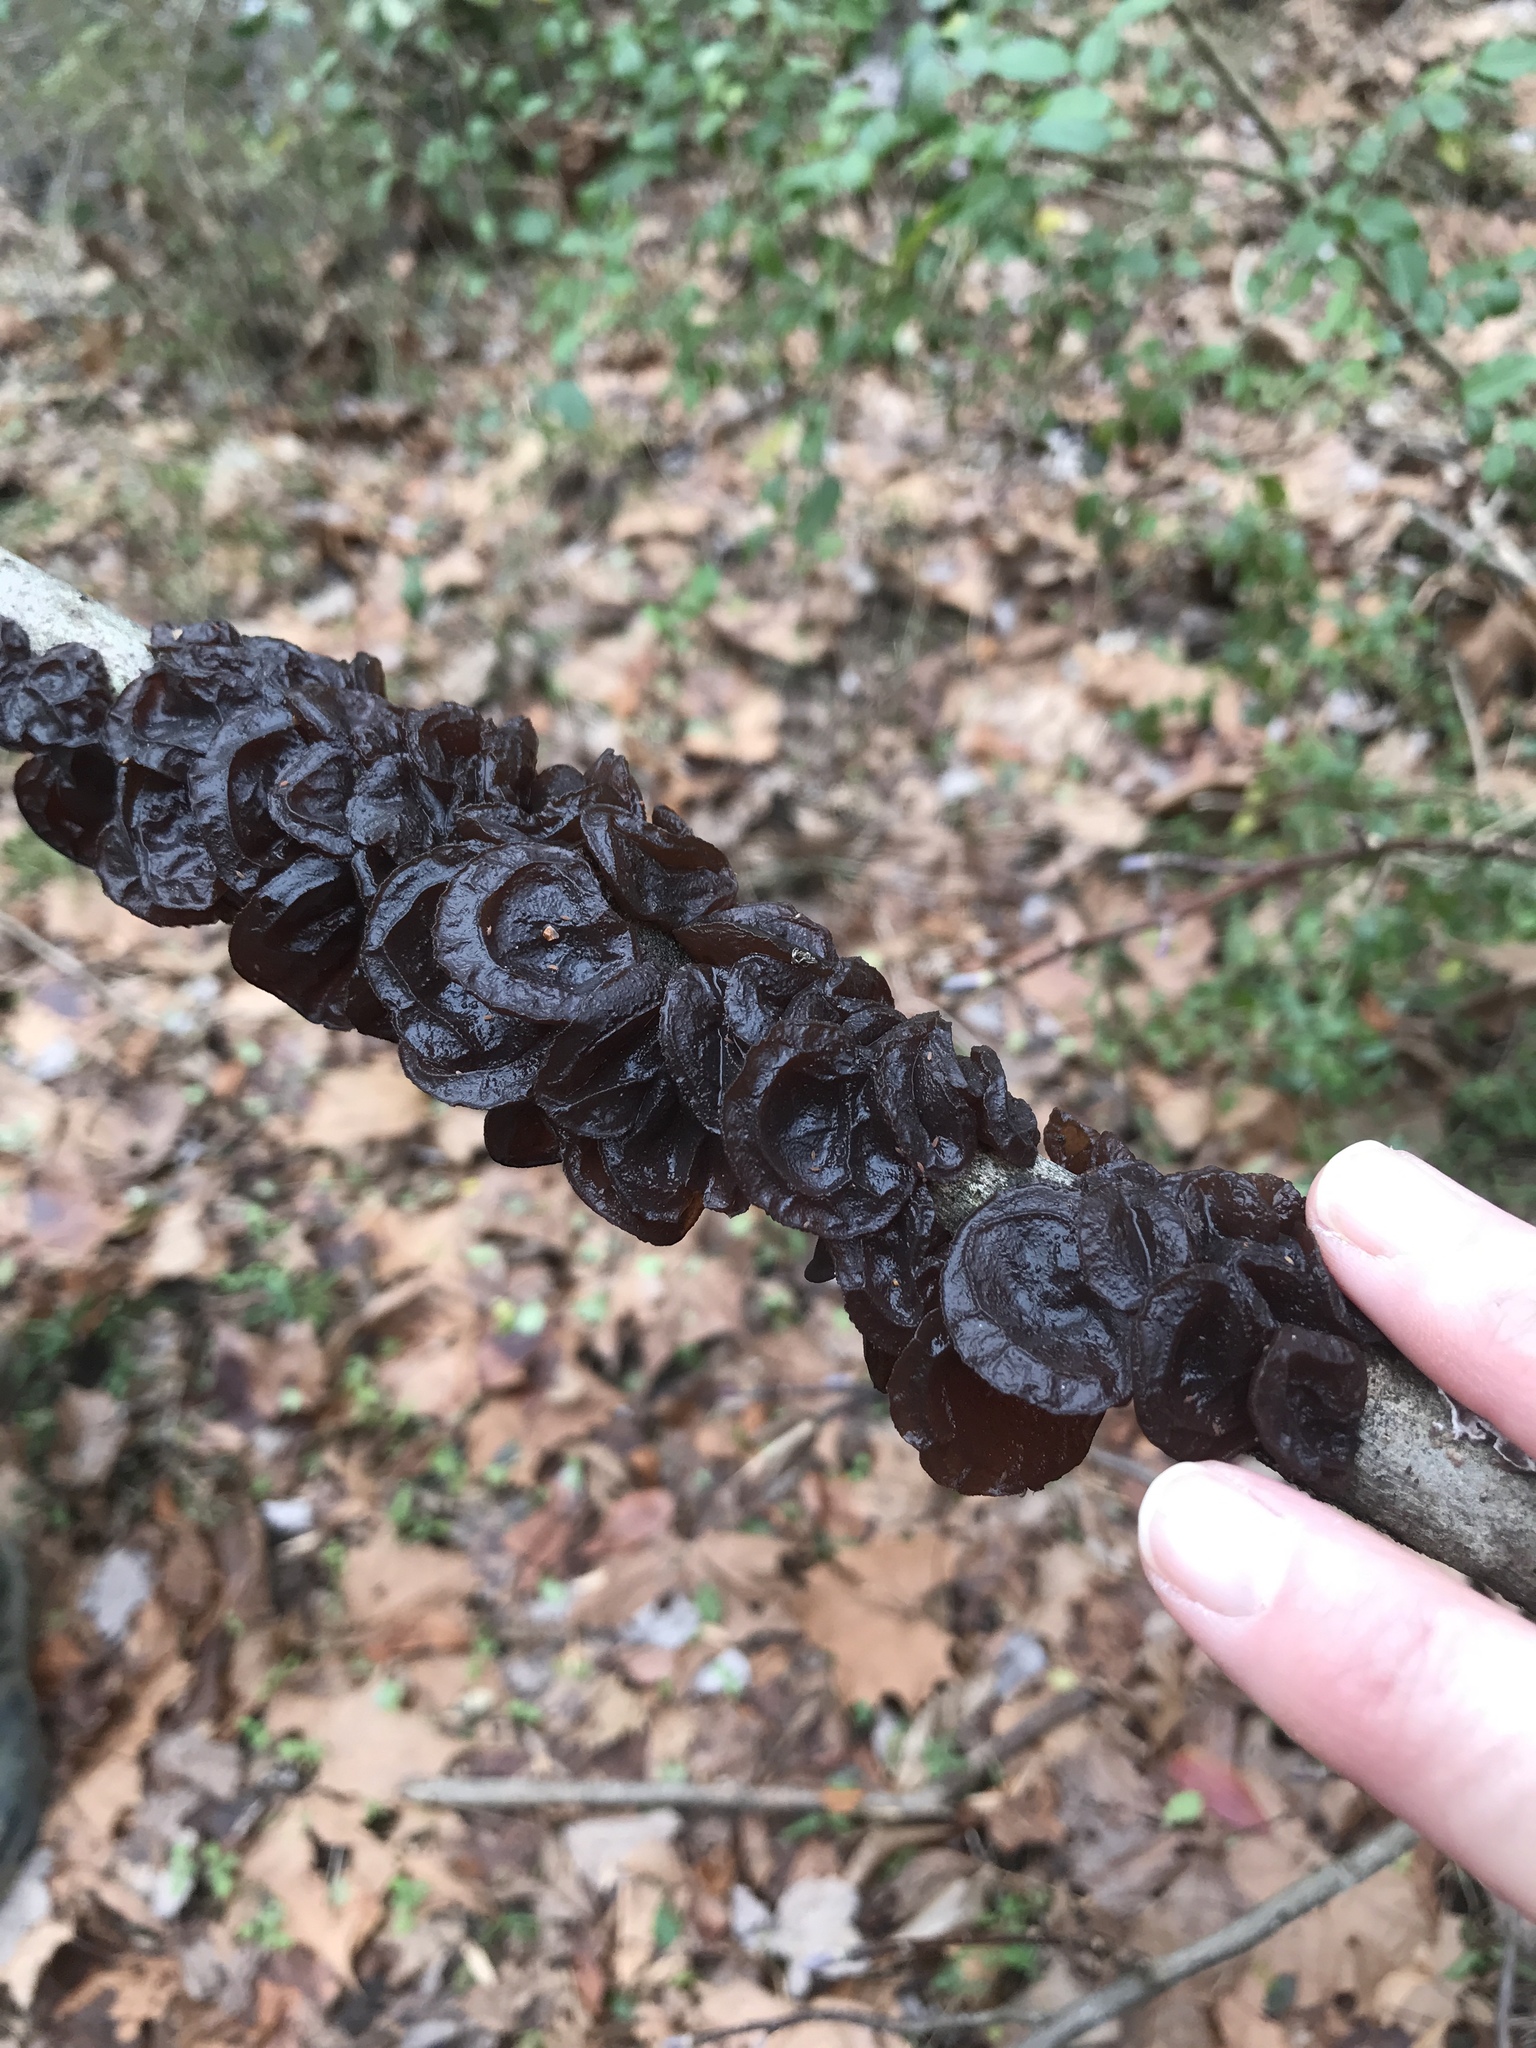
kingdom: Fungi
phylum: Basidiomycota
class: Agaricomycetes
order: Auriculariales
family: Auriculariaceae
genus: Exidia
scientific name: Exidia
